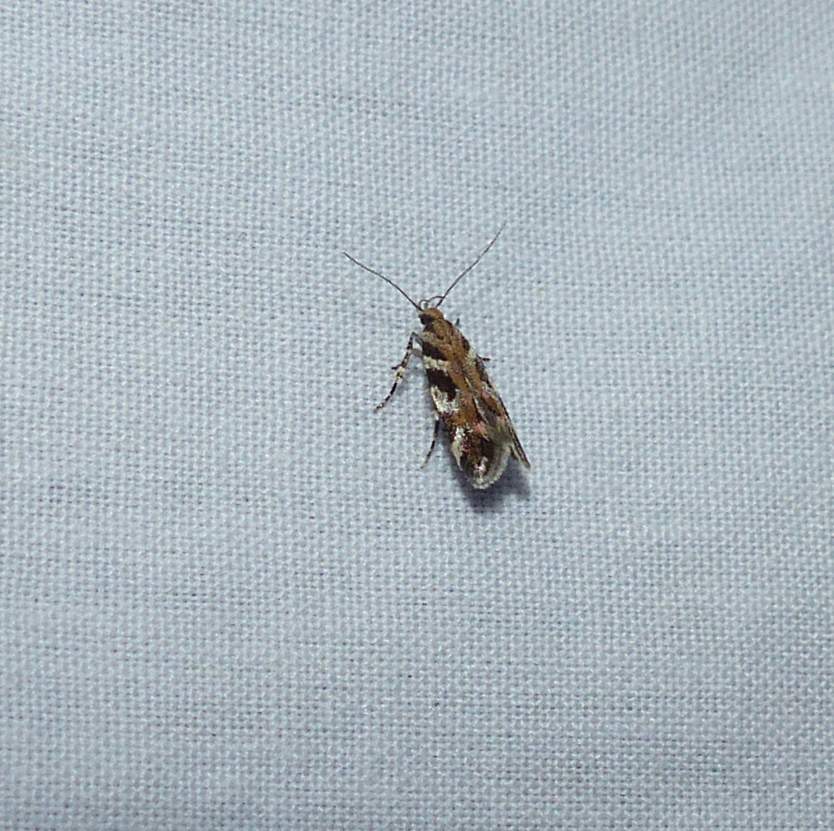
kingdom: Animalia
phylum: Arthropoda
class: Insecta
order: Lepidoptera
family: Gelechiidae
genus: Aristotelia
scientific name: Aristotelia roseosuffusella
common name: Pink-washed aristotelia moth
